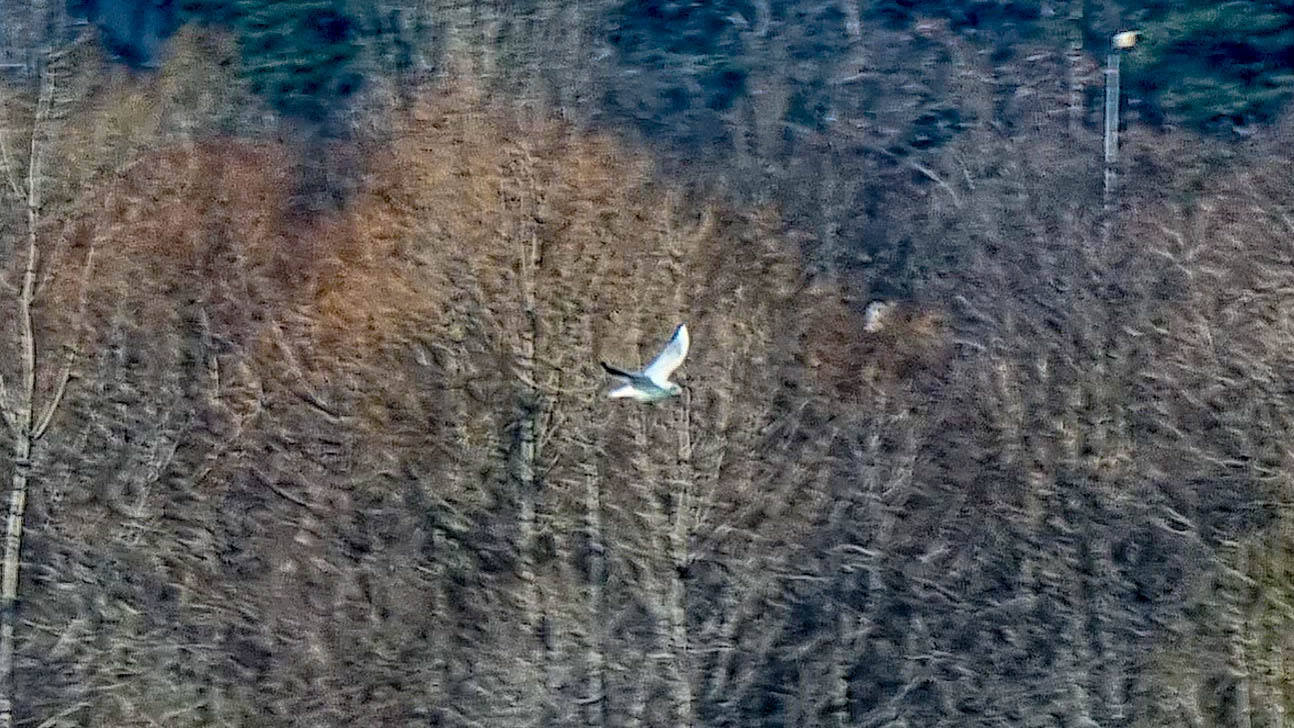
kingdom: Animalia
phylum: Chordata
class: Aves
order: Charadriiformes
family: Laridae
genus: Chroicocephalus
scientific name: Chroicocephalus ridibundus
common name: Black-headed gull
